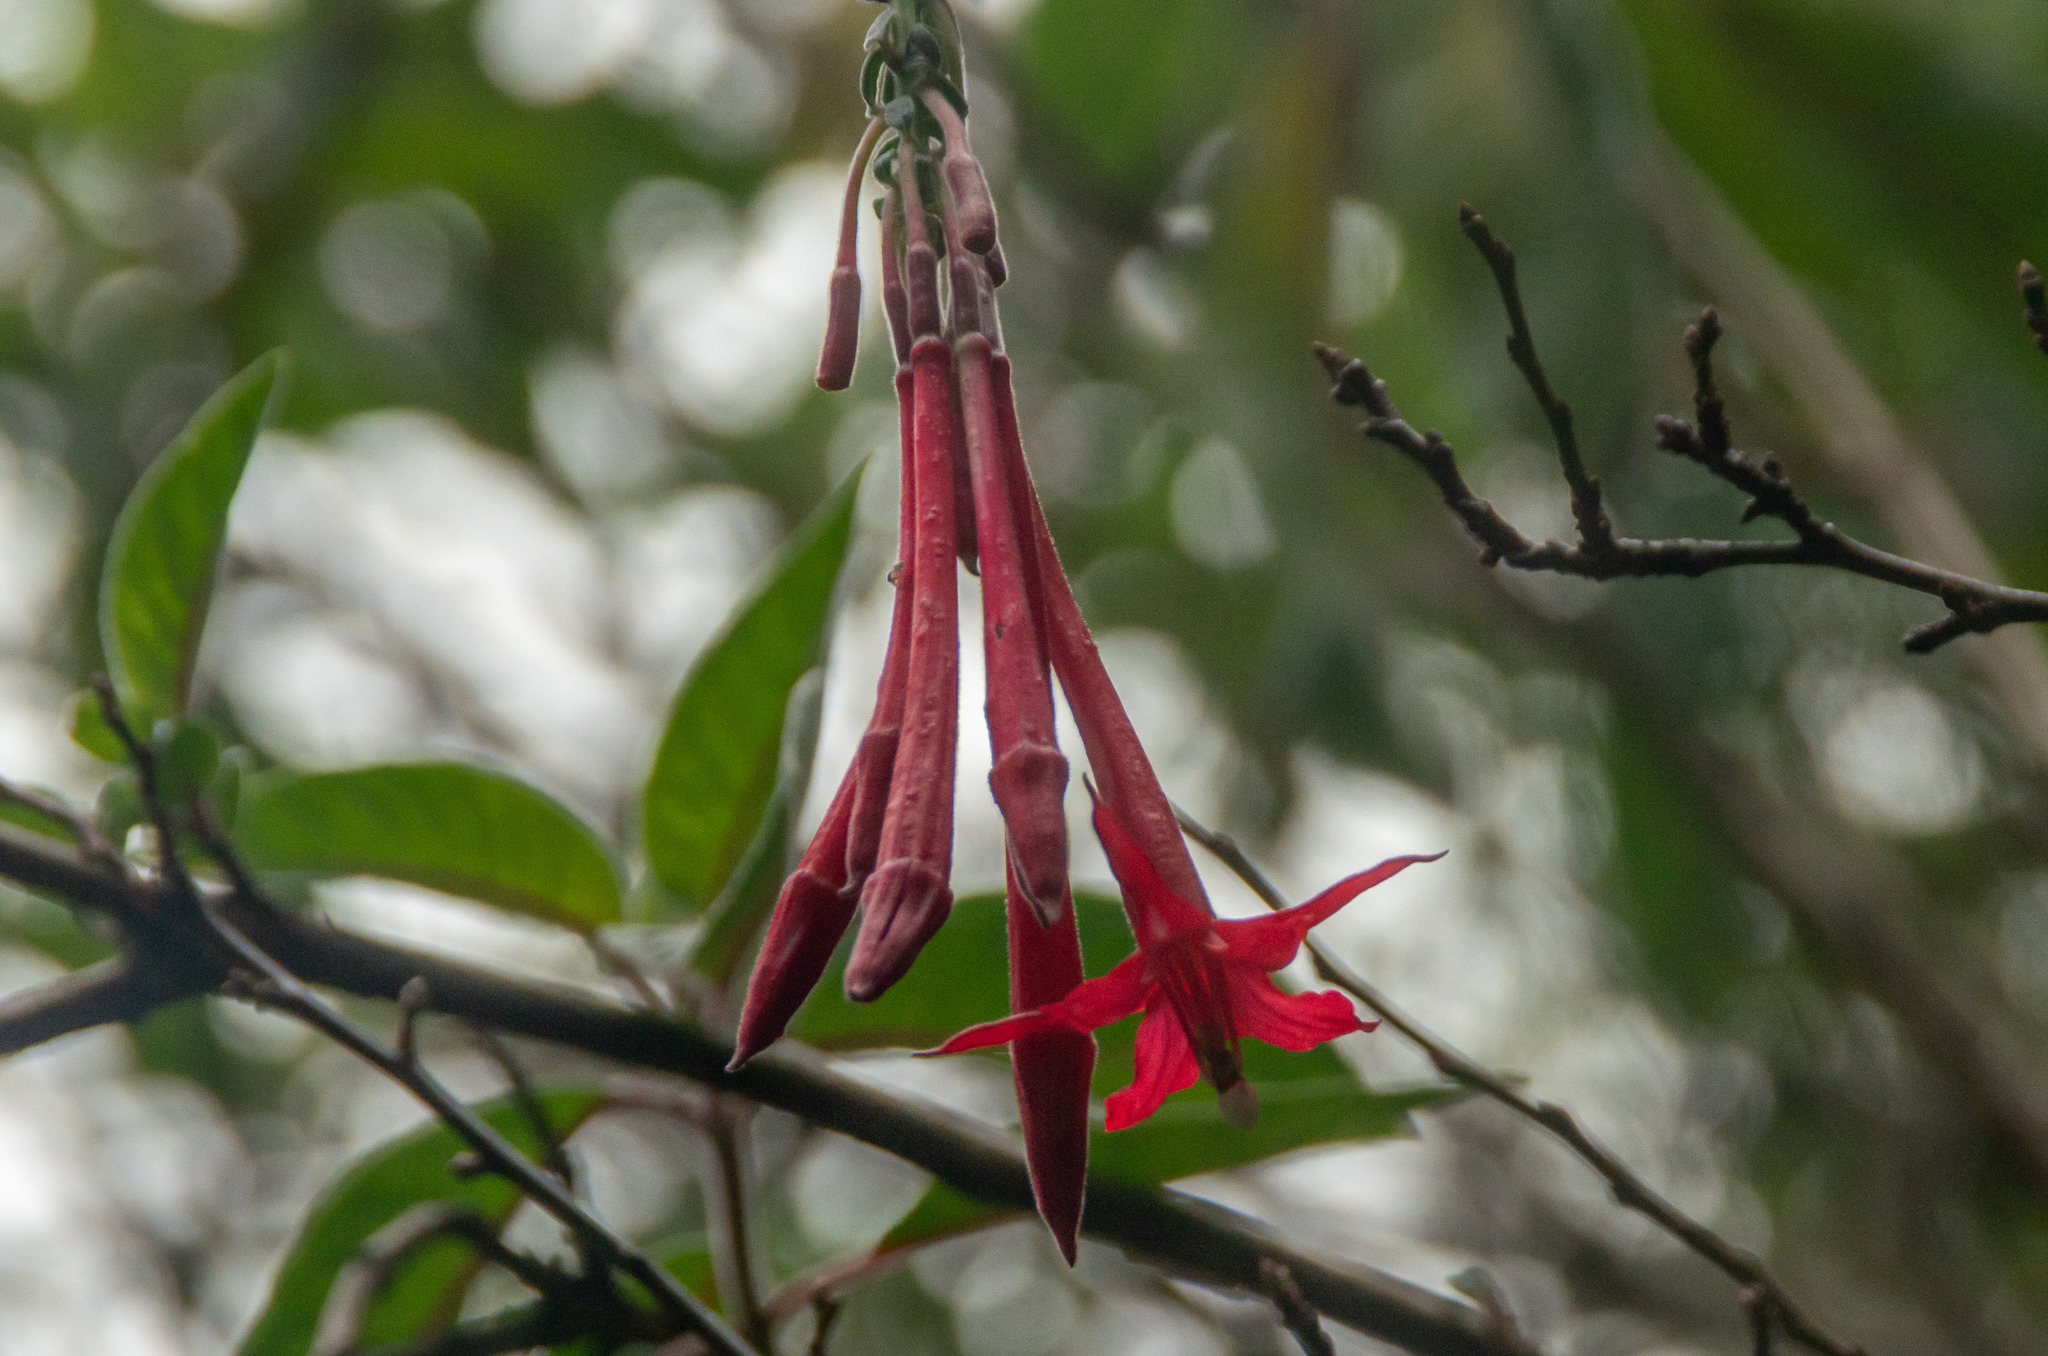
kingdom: Plantae
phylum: Tracheophyta
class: Magnoliopsida
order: Myrtales
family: Onagraceae
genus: Fuchsia
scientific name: Fuchsia boliviana
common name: Bolivian fuchsia
